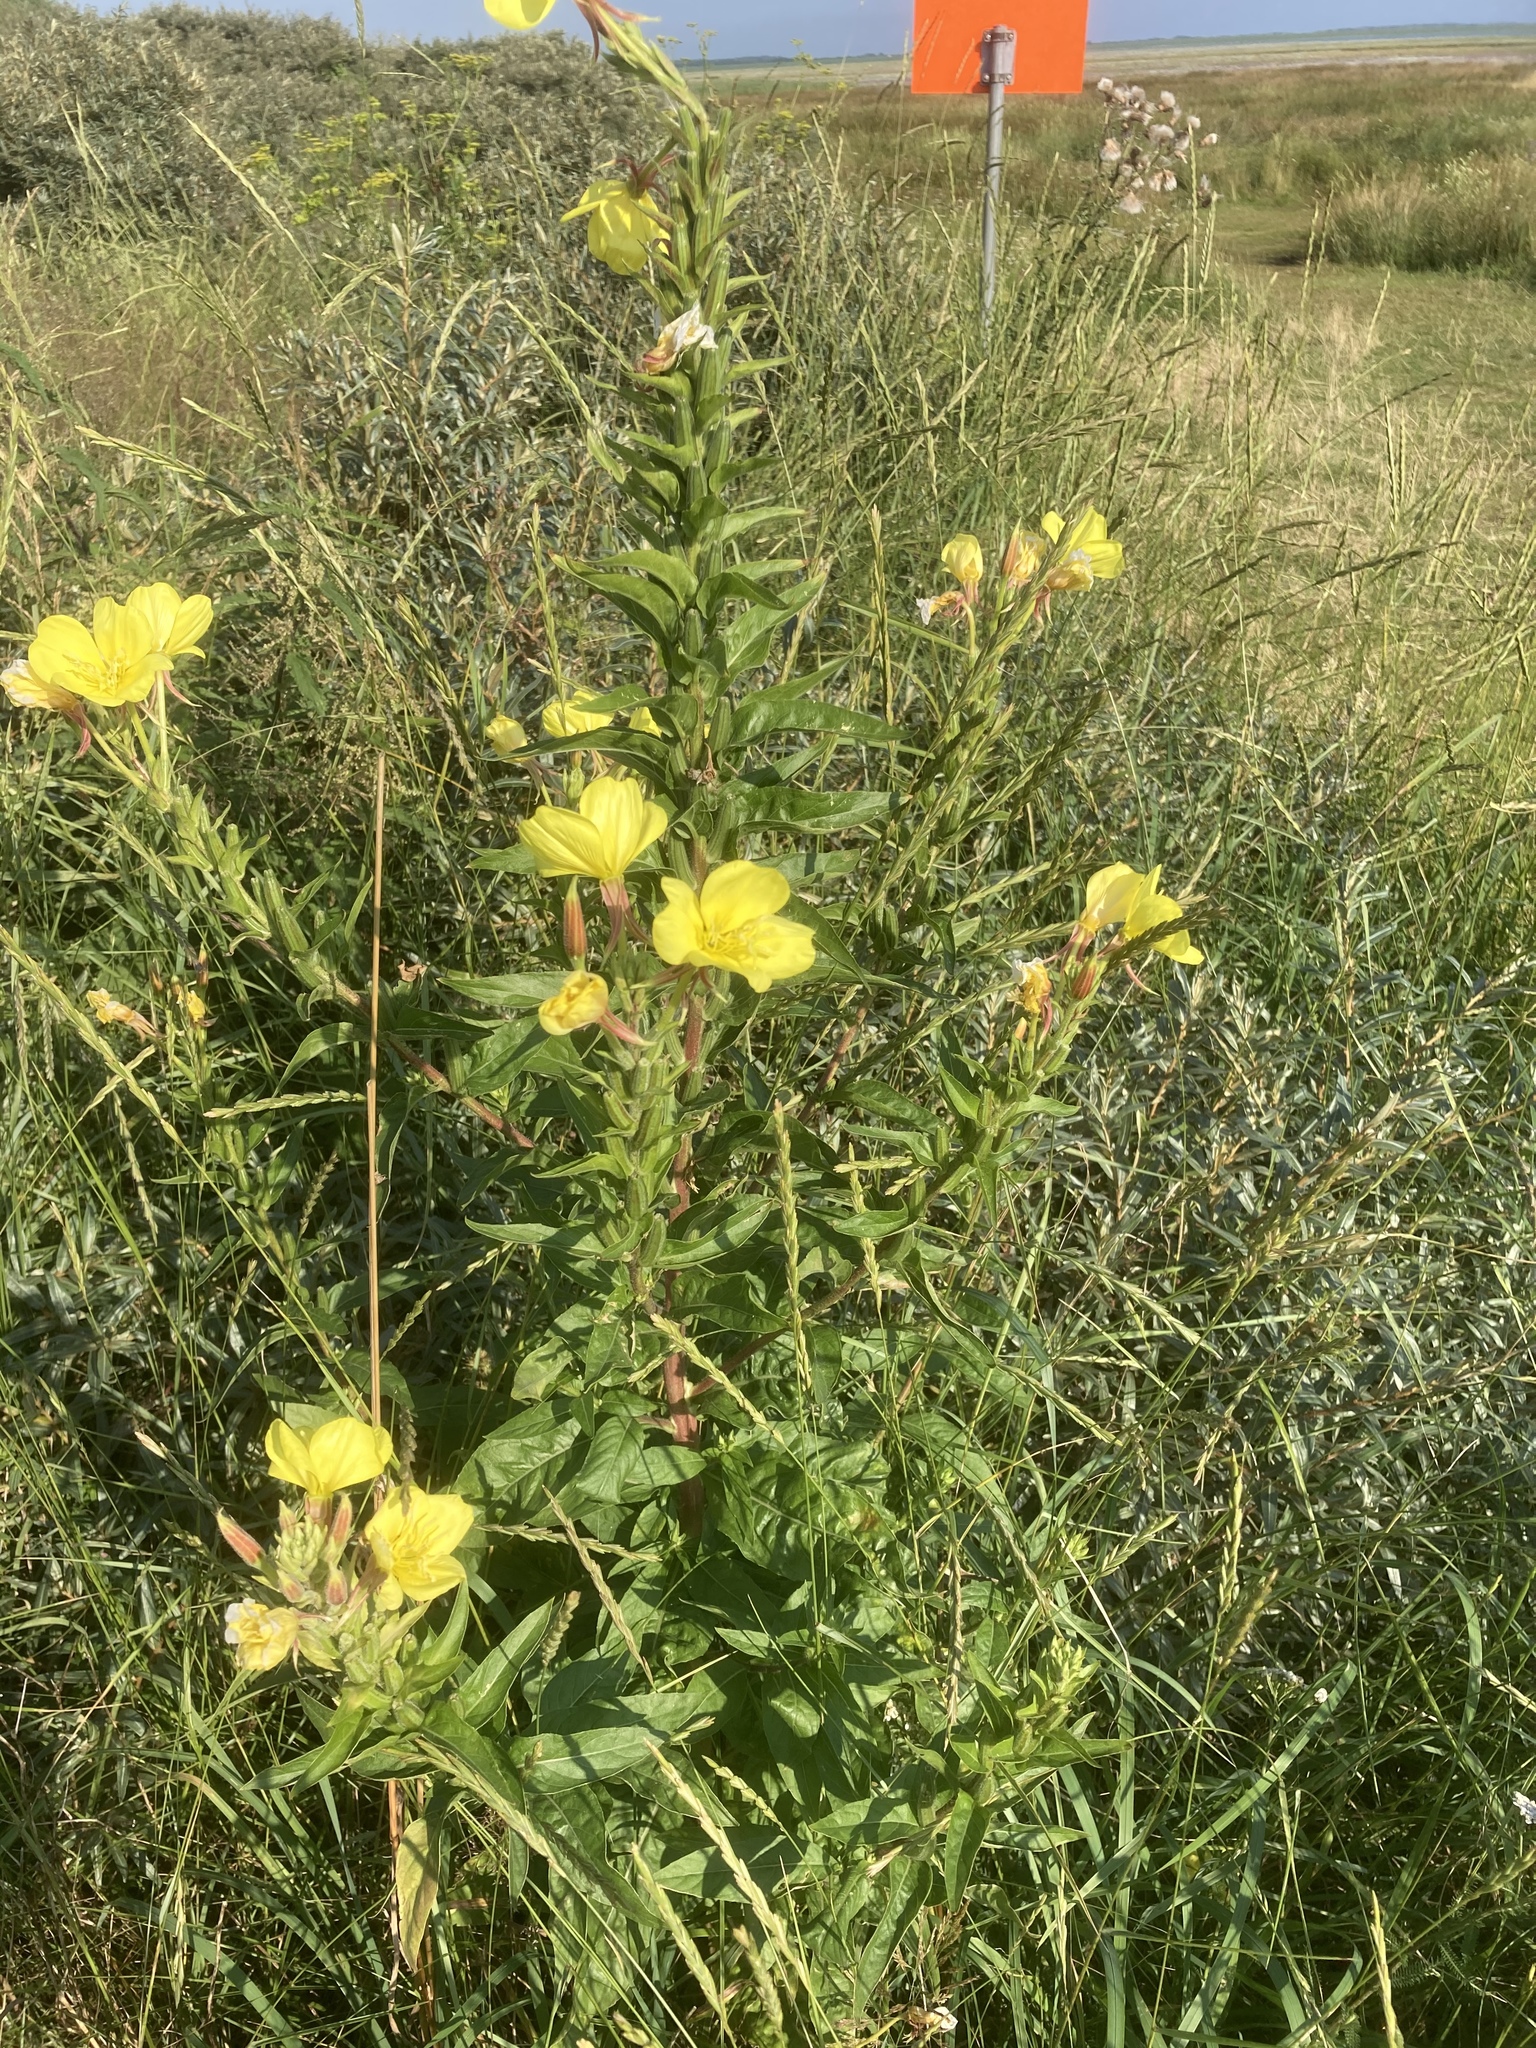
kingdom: Plantae
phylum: Tracheophyta
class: Magnoliopsida
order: Myrtales
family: Onagraceae
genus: Oenothera
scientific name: Oenothera glazioviana
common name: Large-flowered evening-primrose
